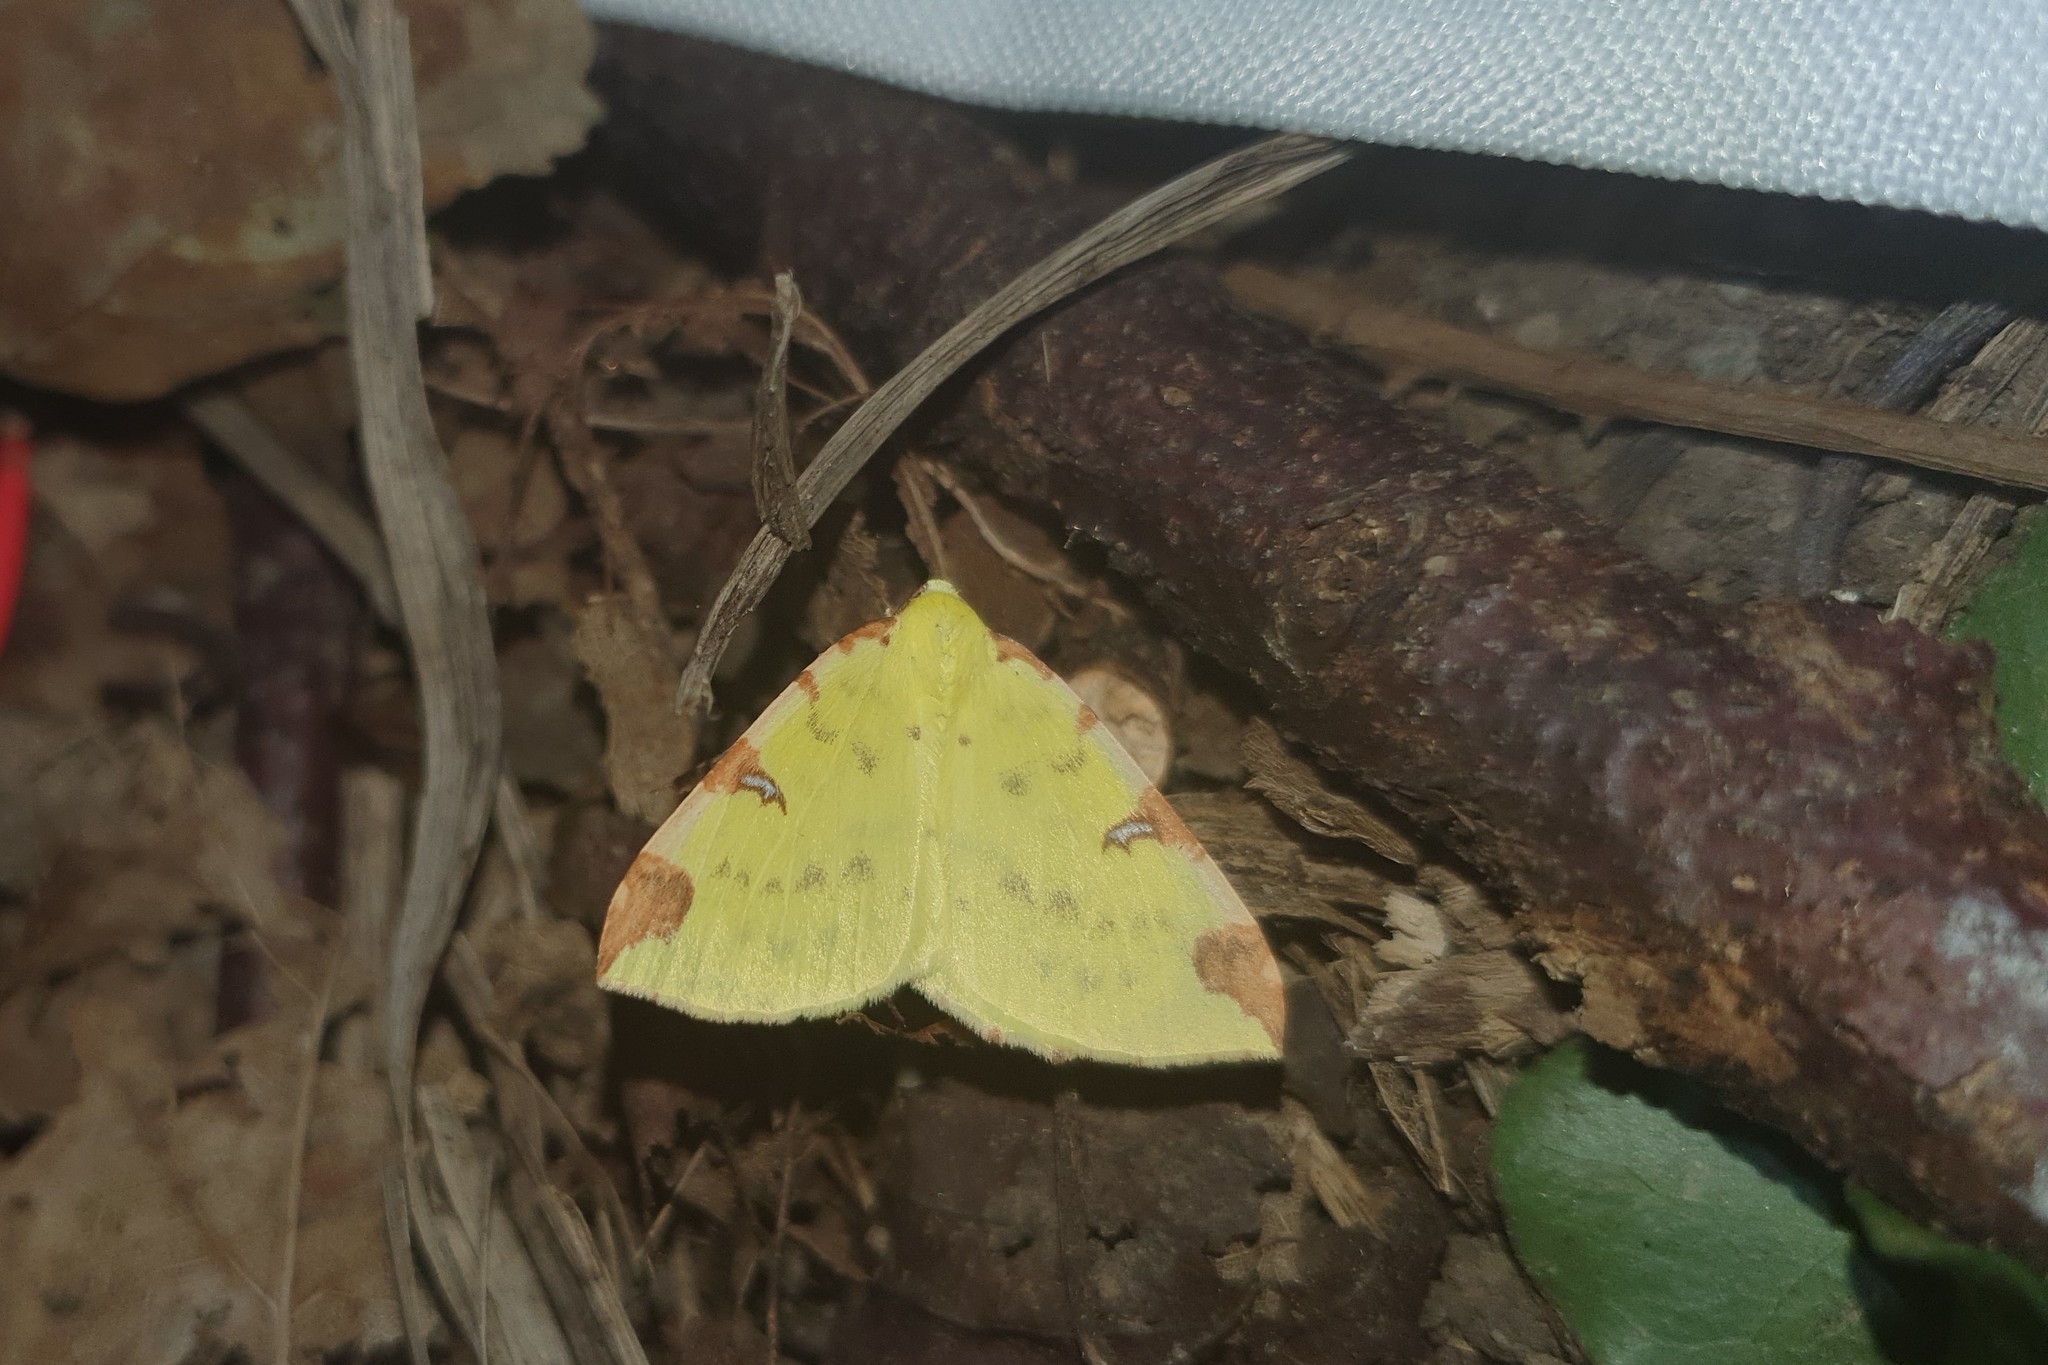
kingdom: Animalia
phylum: Arthropoda
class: Insecta
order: Lepidoptera
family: Geometridae
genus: Opisthograptis
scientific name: Opisthograptis luteolata
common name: Brimstone moth
